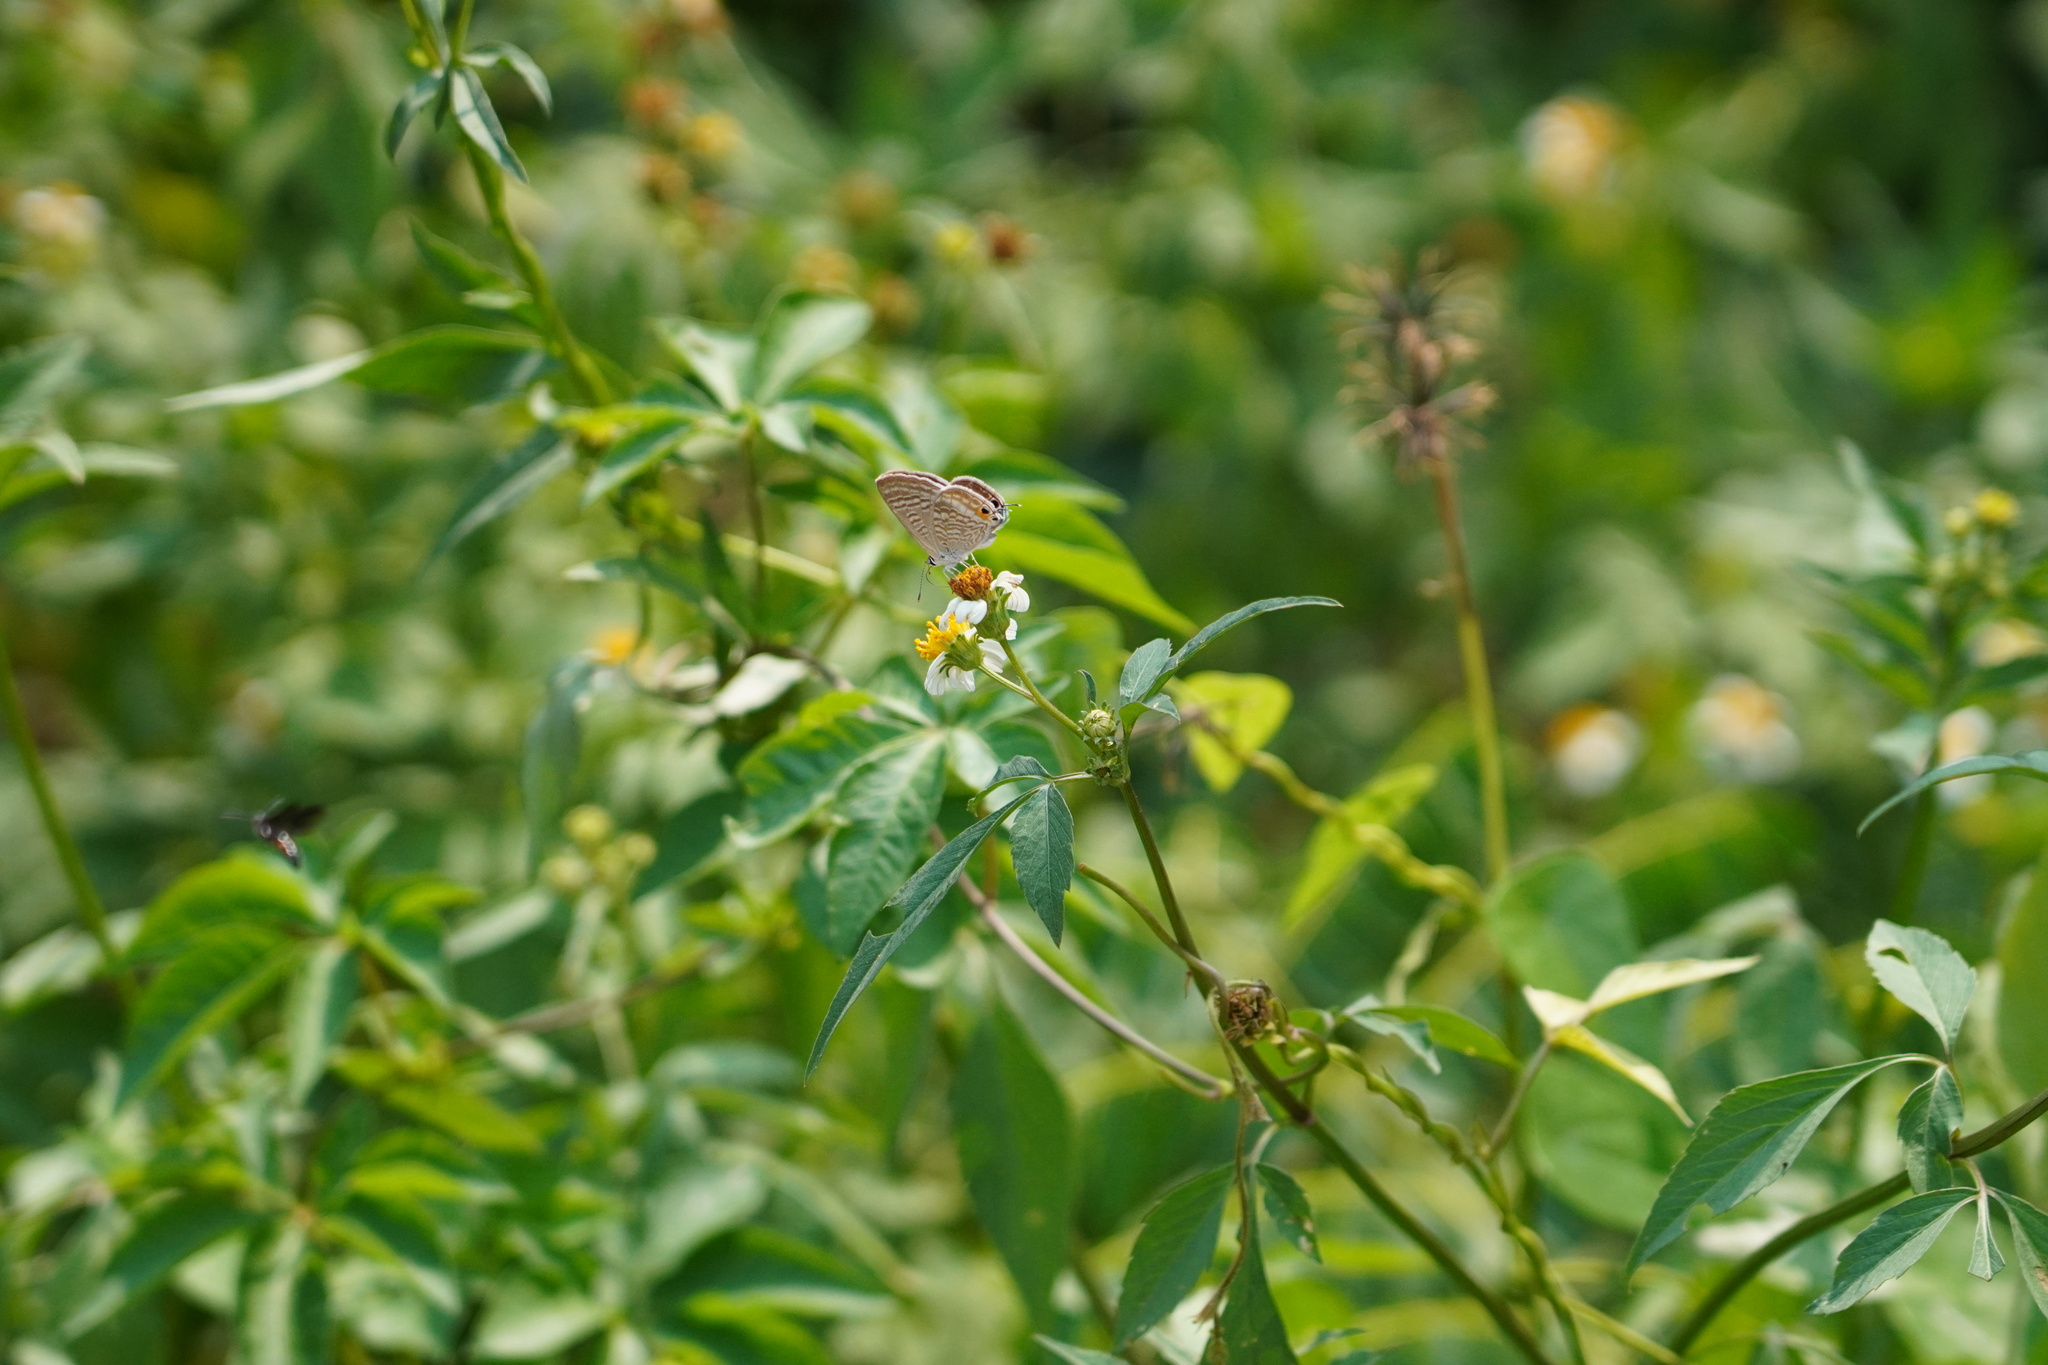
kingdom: Animalia
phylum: Arthropoda
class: Insecta
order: Lepidoptera
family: Lycaenidae
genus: Lampides
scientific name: Lampides boeticus
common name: Long-tailed blue
